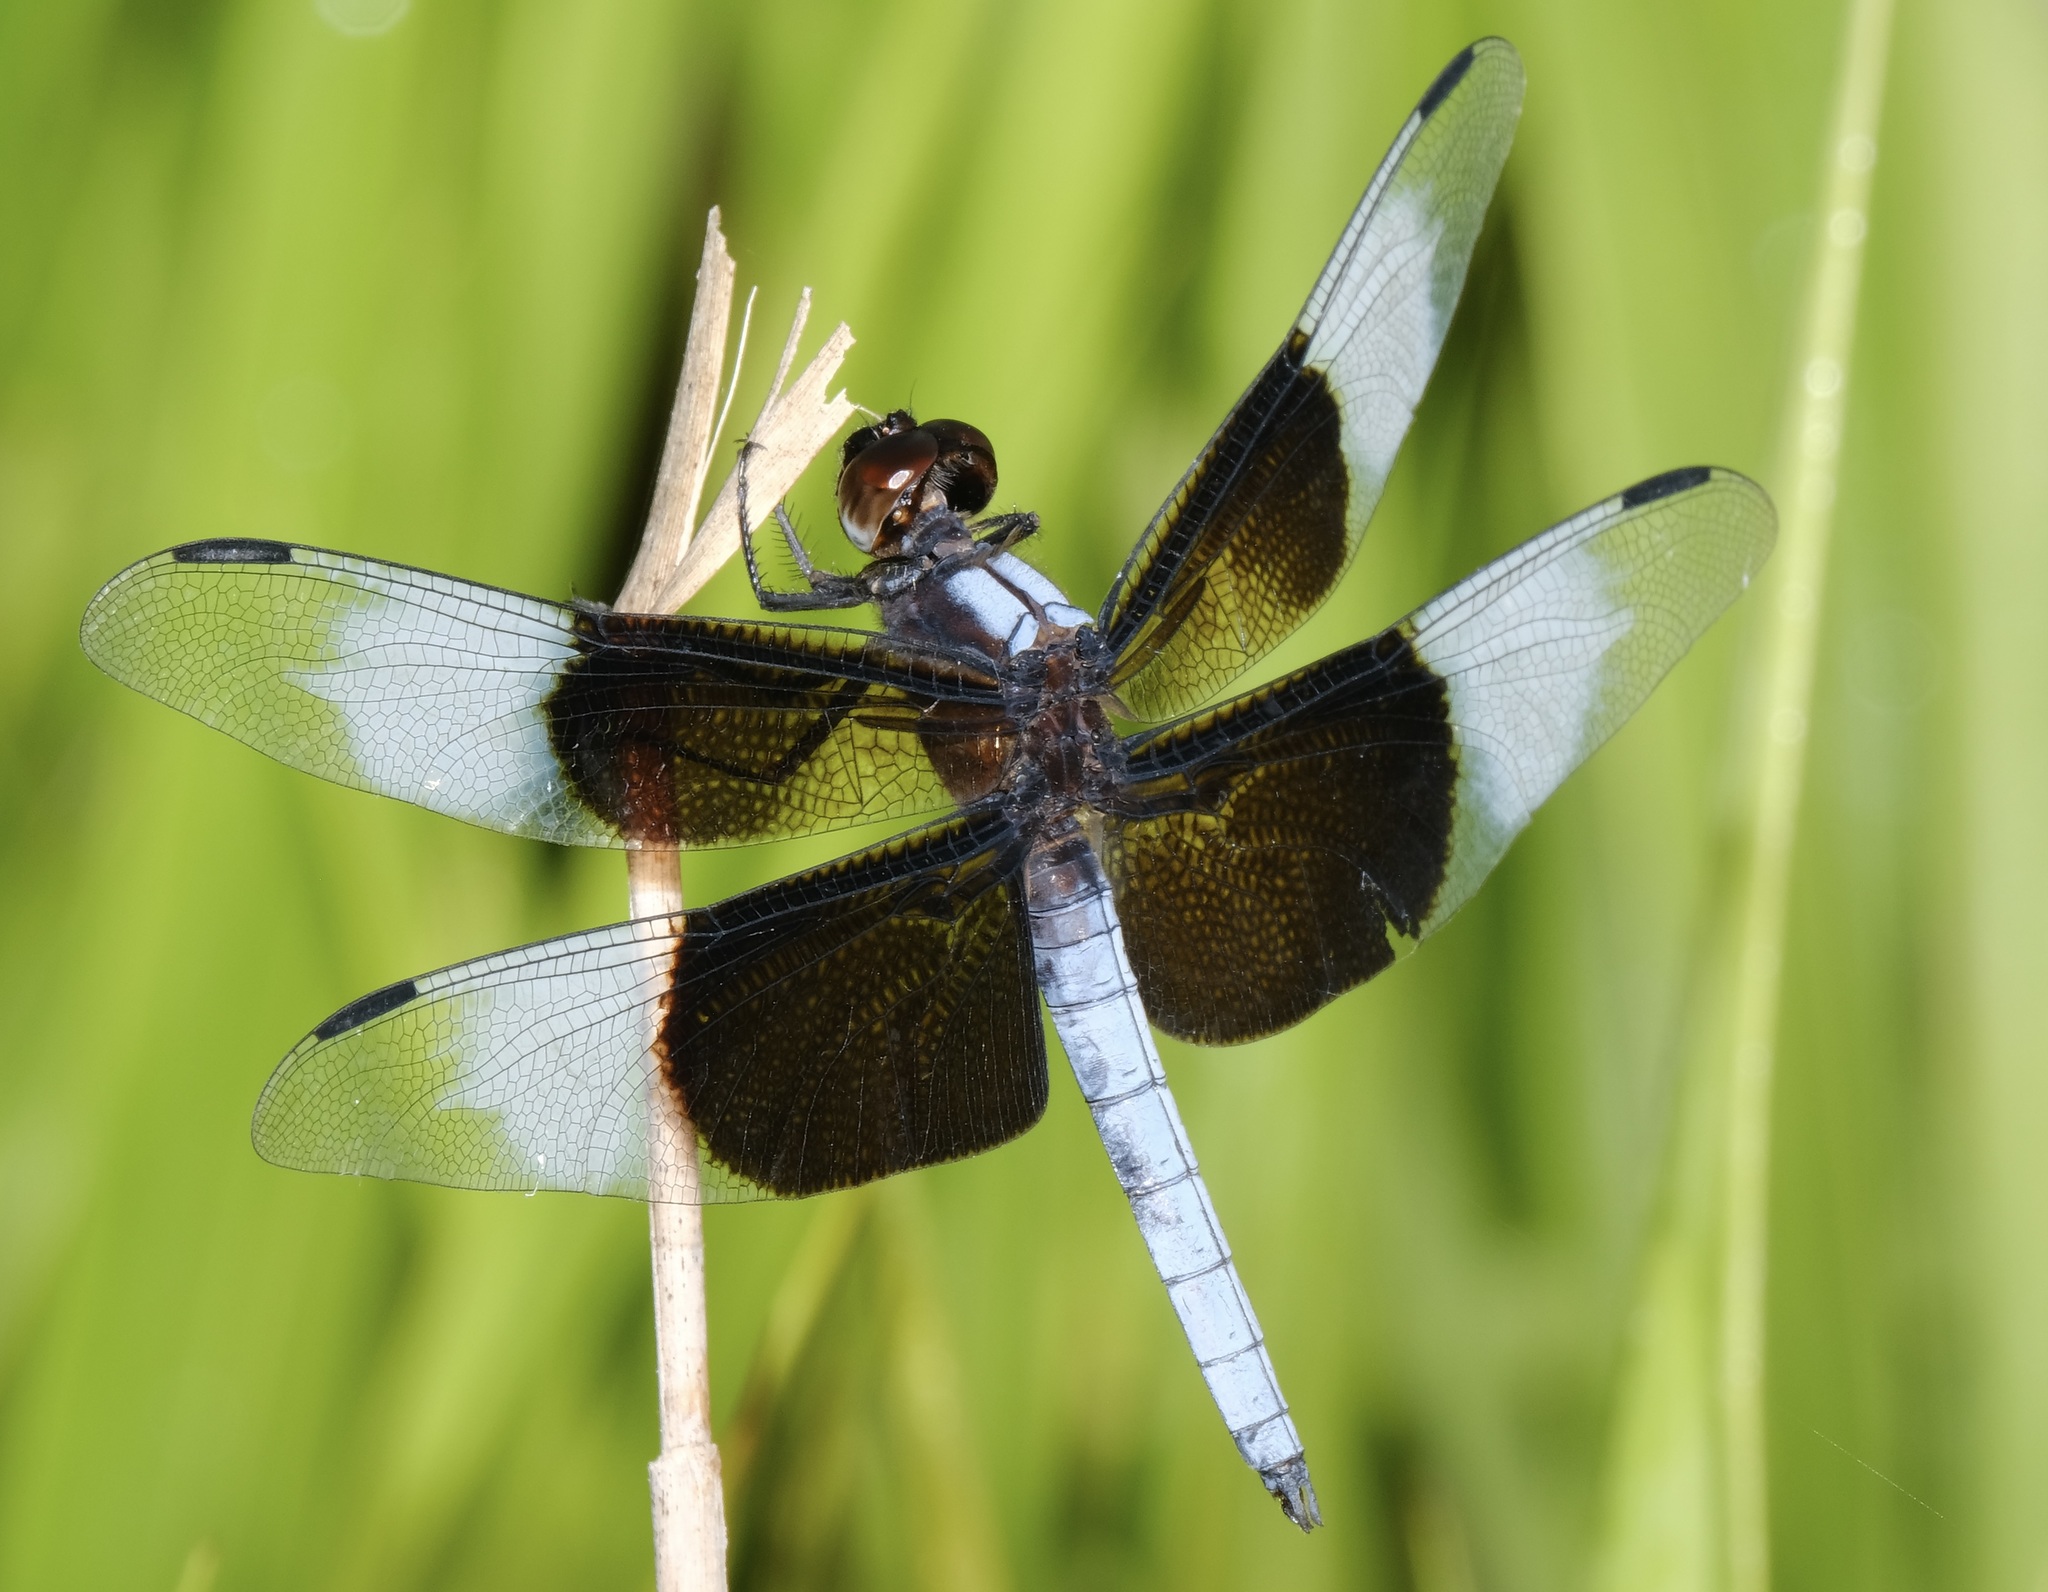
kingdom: Animalia
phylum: Arthropoda
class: Insecta
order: Odonata
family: Libellulidae
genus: Libellula
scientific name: Libellula luctuosa
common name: Widow skimmer
